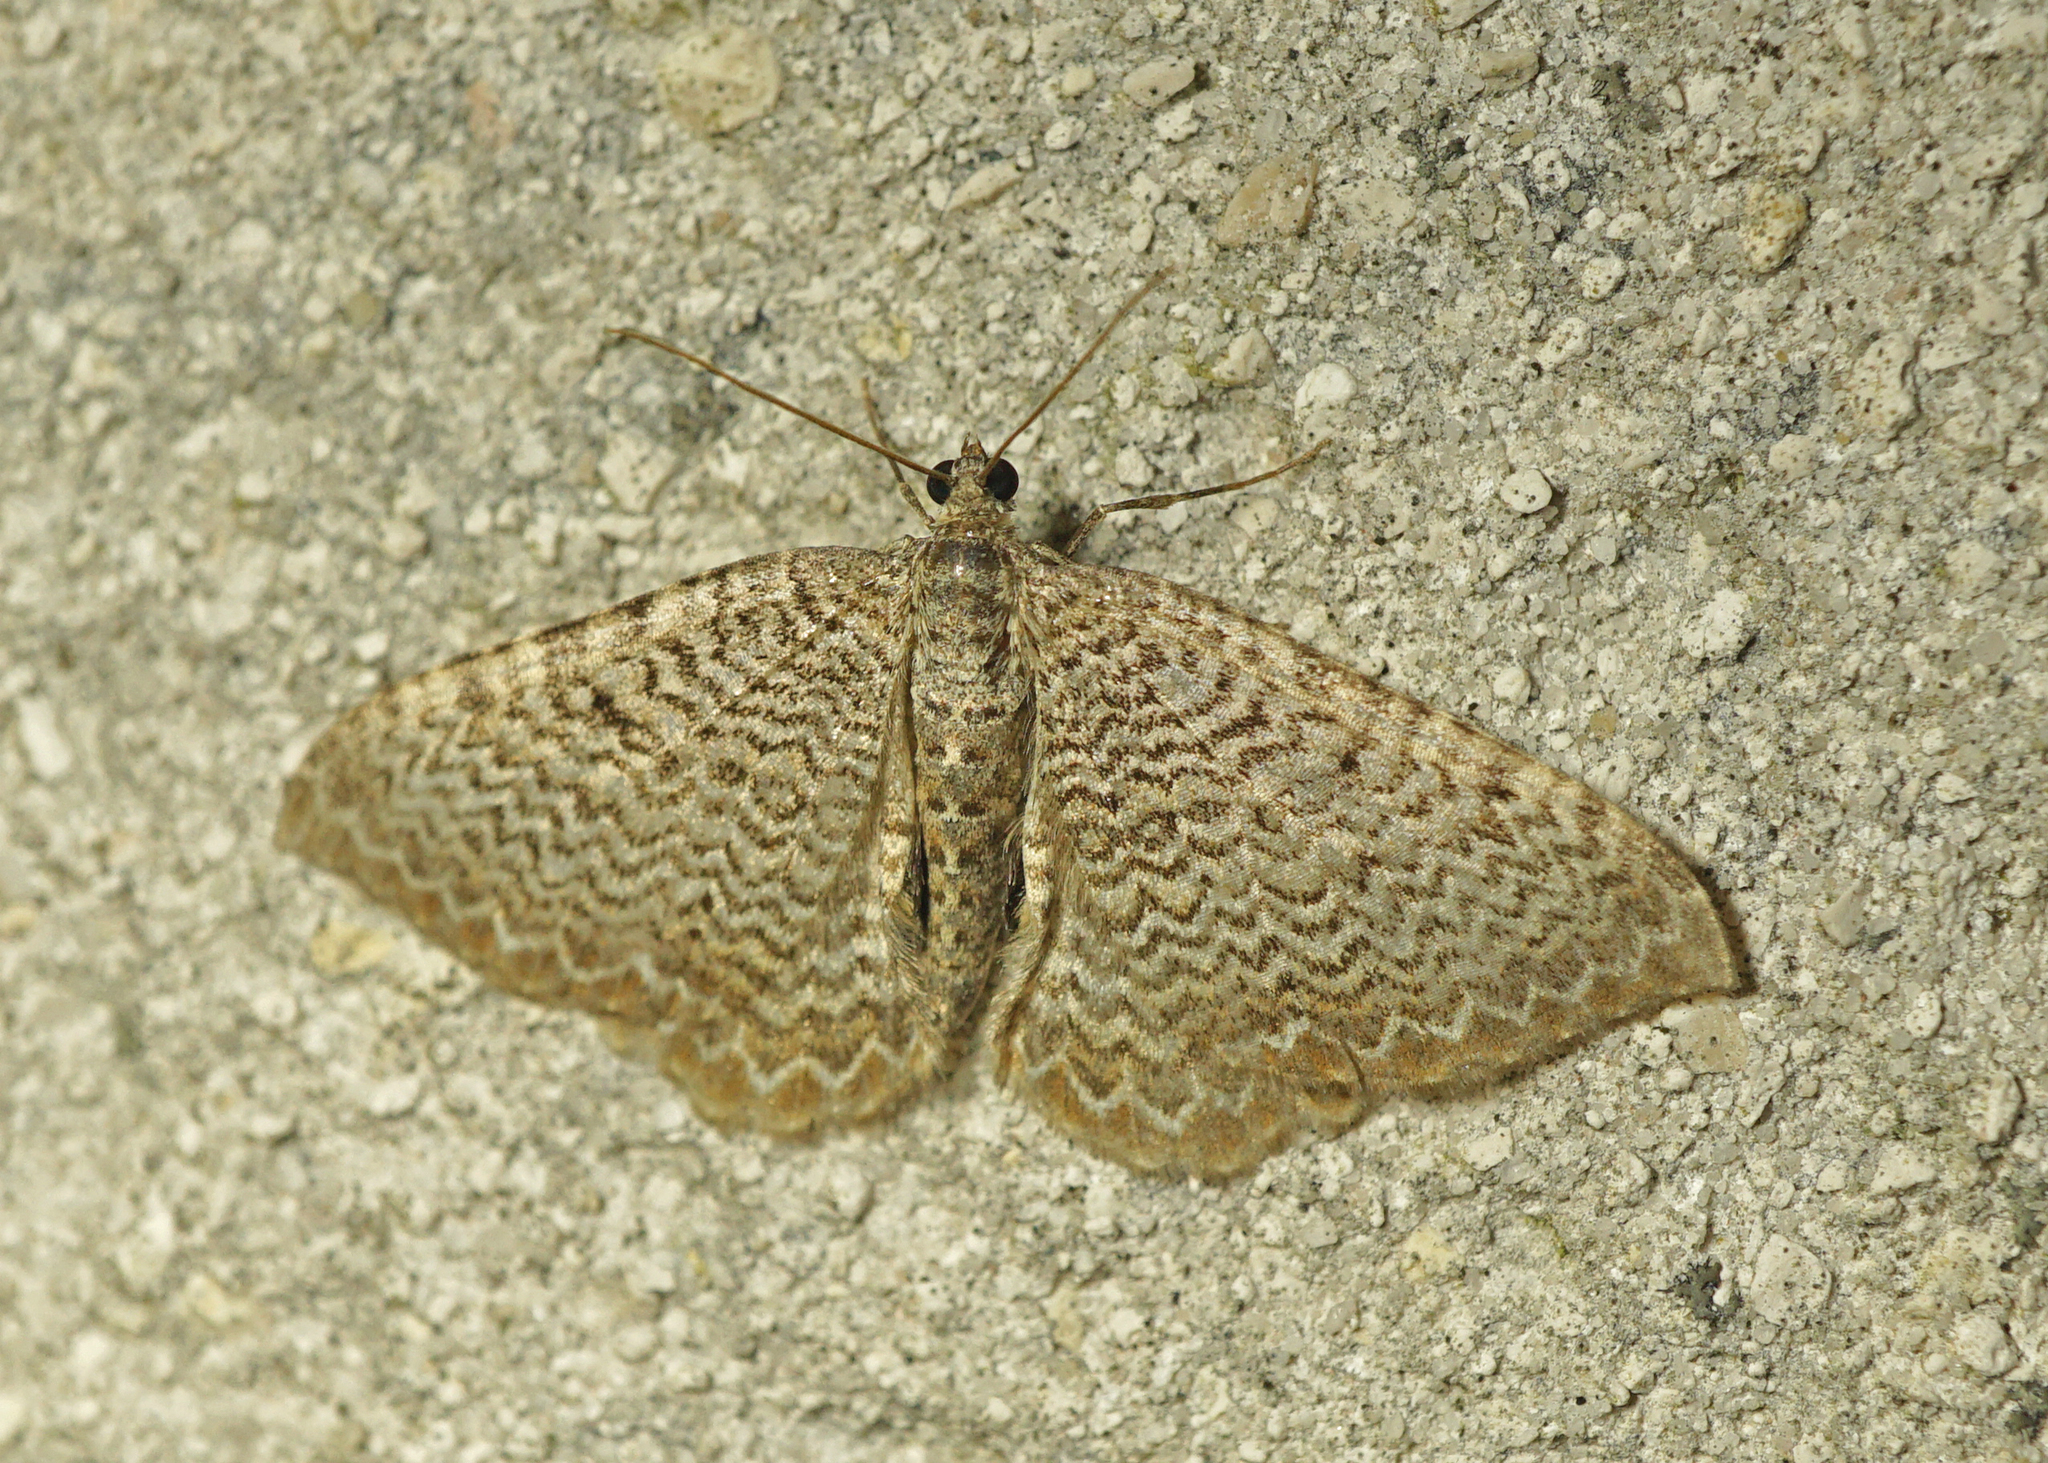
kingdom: Animalia
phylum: Arthropoda
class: Insecta
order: Lepidoptera
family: Geometridae
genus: Rheumaptera
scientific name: Rheumaptera undulata
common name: Scallop shell
